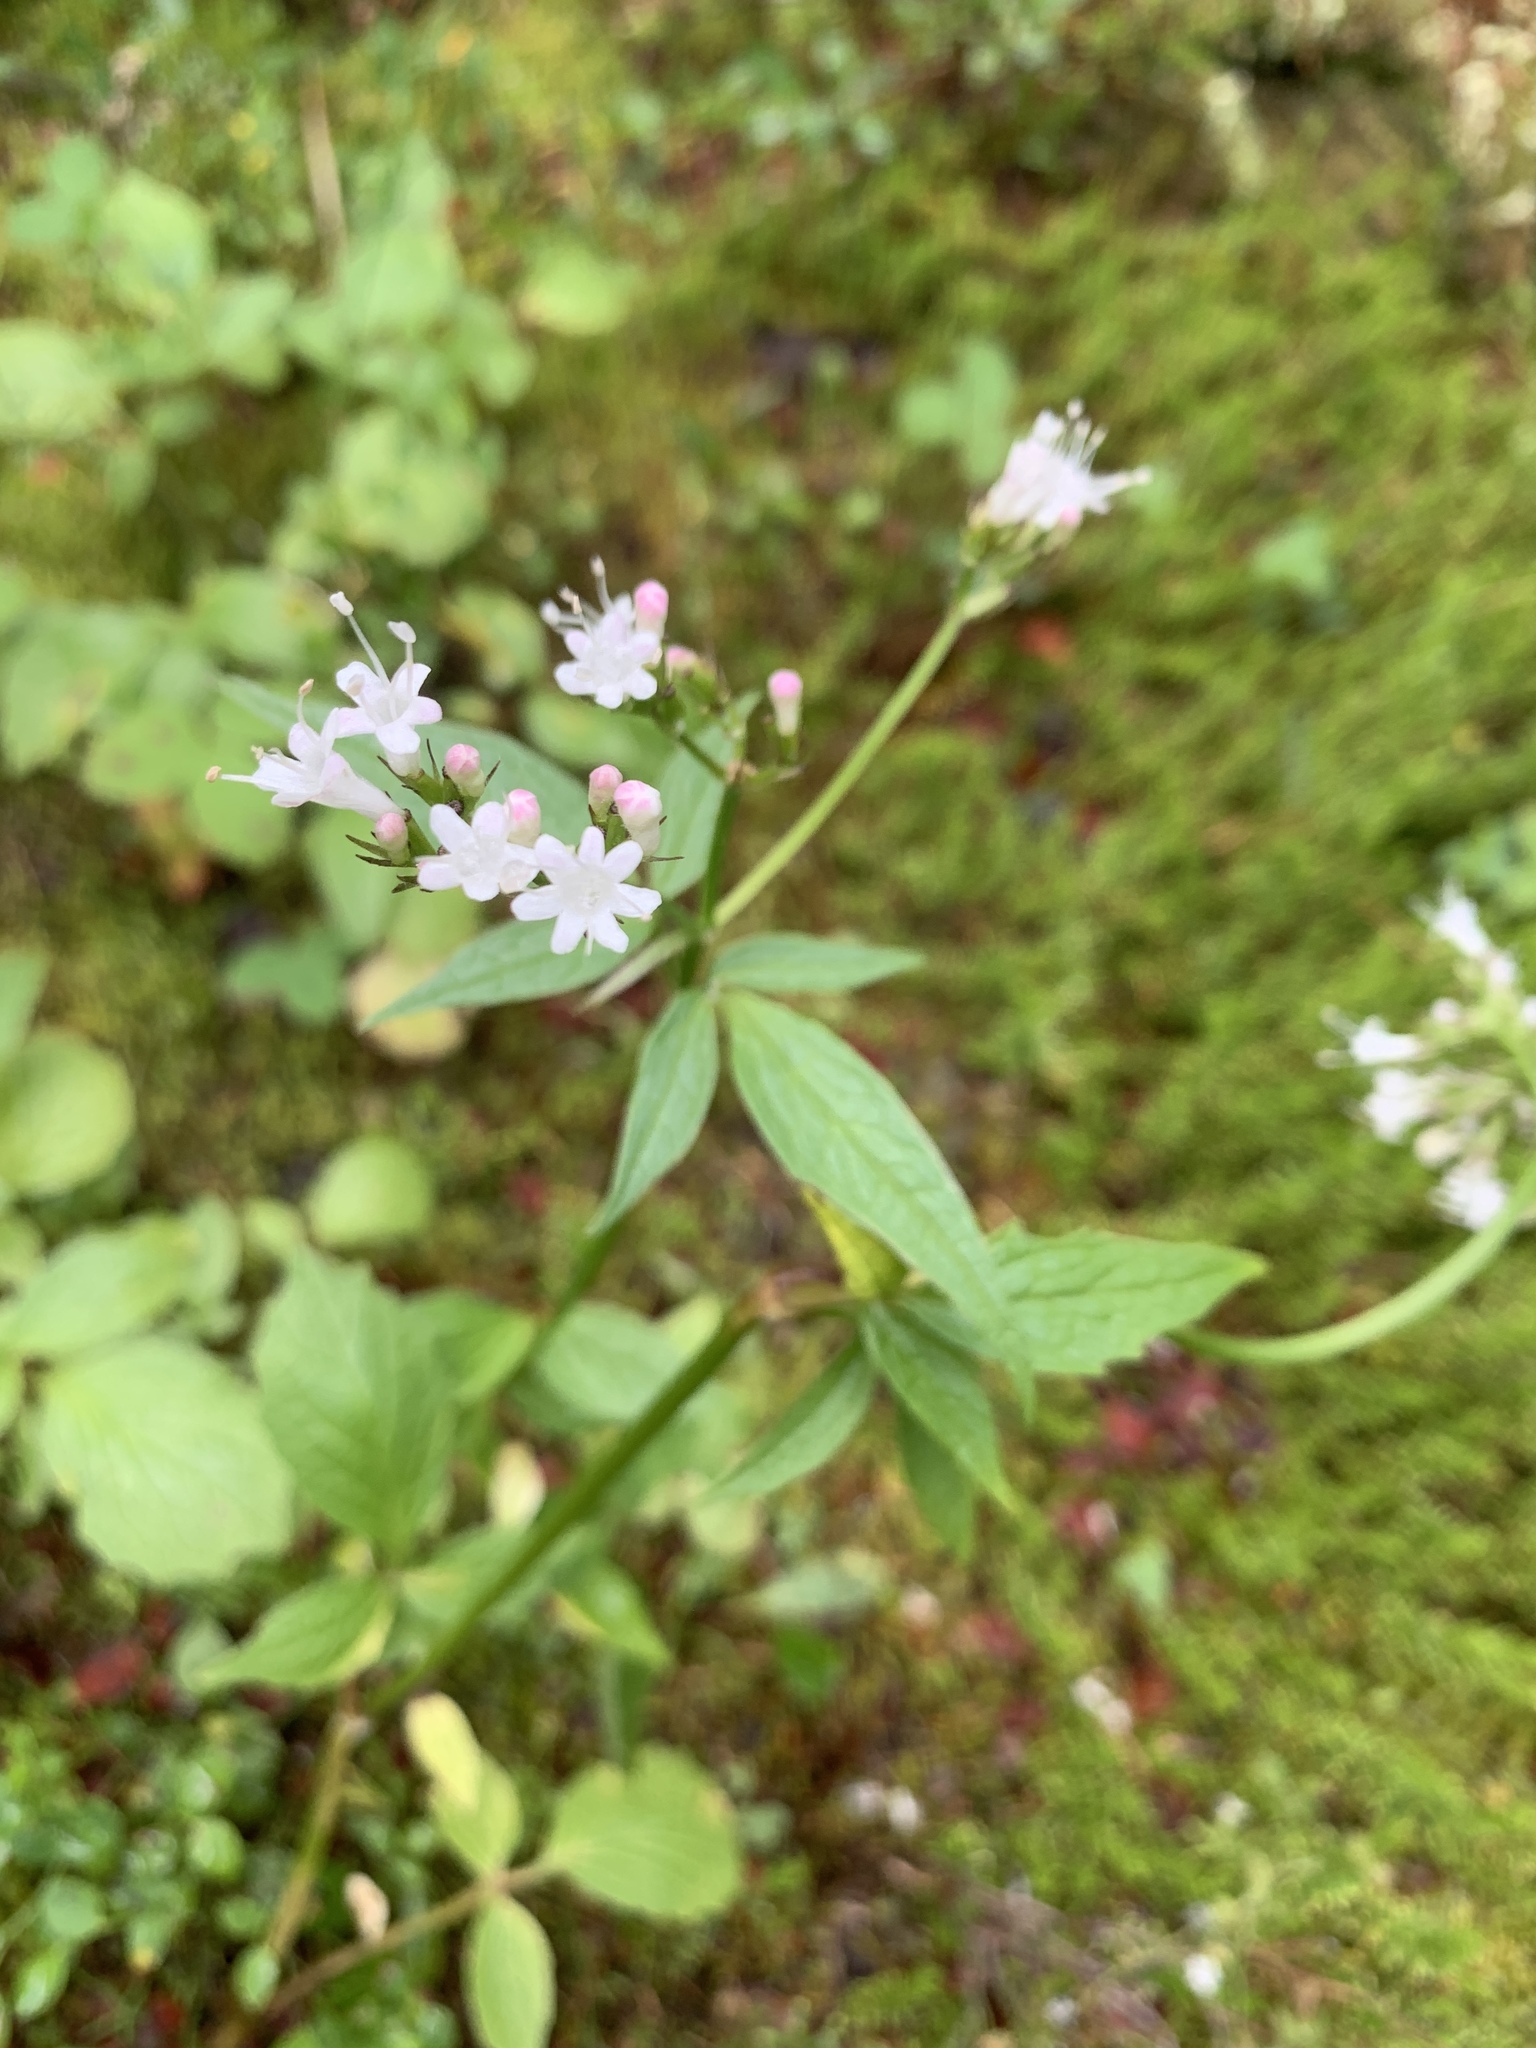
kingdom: Plantae
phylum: Tracheophyta
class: Magnoliopsida
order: Dipsacales
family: Caprifoliaceae
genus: Valeriana
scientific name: Valeriana sitchensis
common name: Pacific valerian
